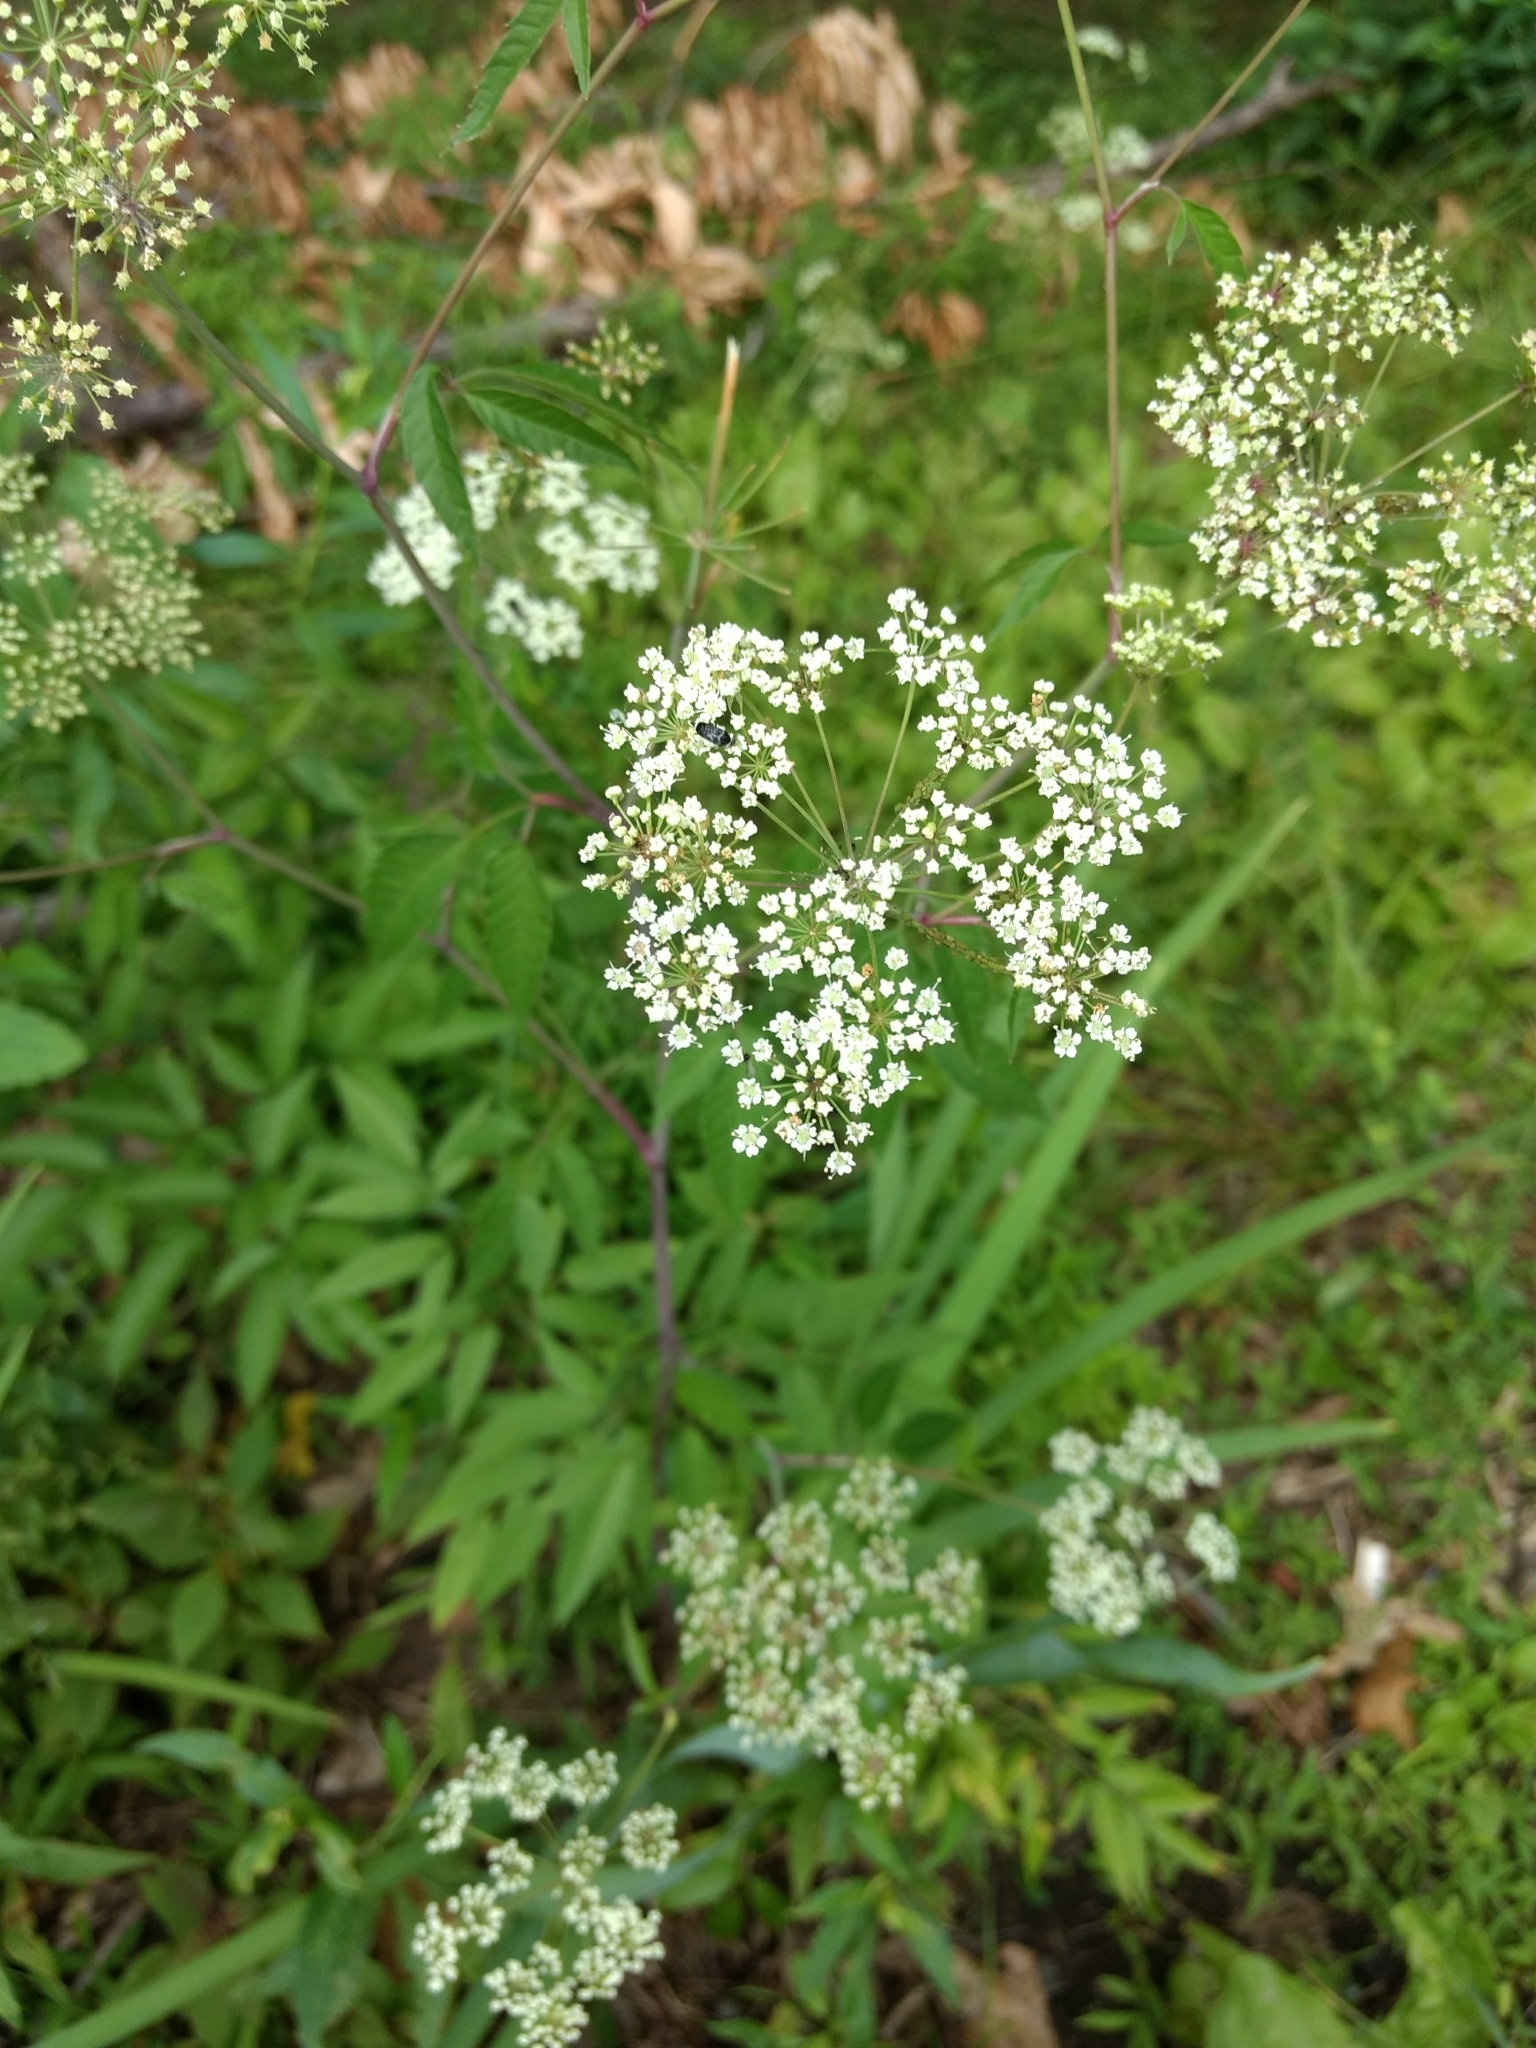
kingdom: Plantae
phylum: Tracheophyta
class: Magnoliopsida
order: Apiales
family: Apiaceae
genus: Cicuta
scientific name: Cicuta maculata
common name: Spotted cowbane
